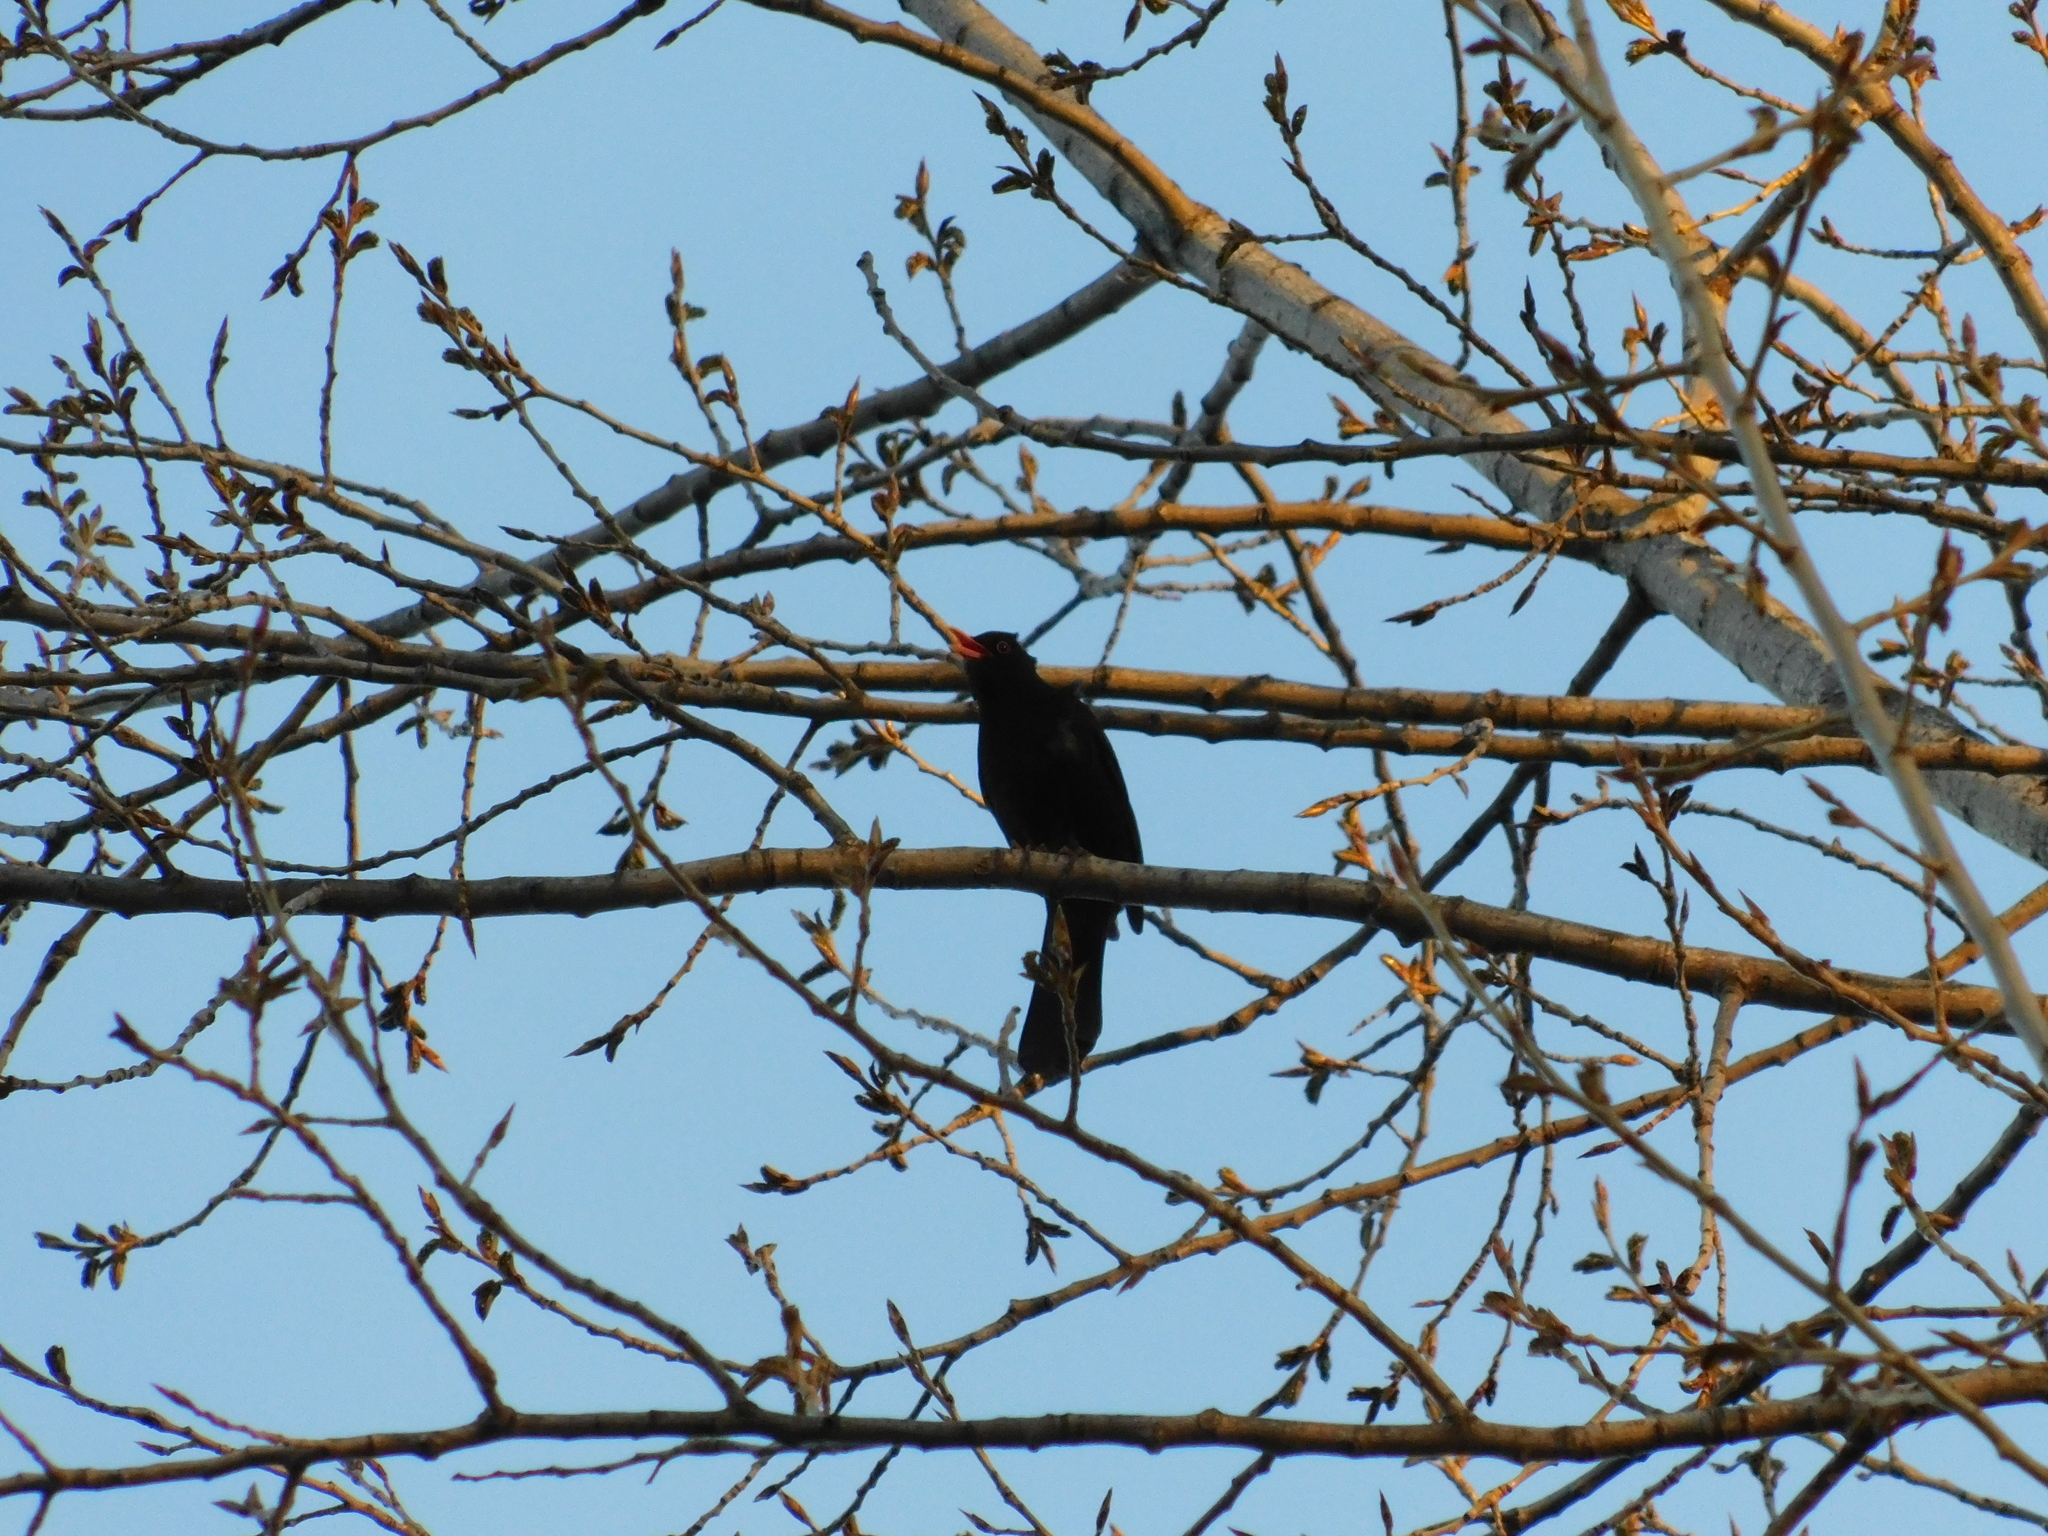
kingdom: Animalia
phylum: Chordata
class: Aves
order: Passeriformes
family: Turdidae
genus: Turdus
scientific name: Turdus merula
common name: Common blackbird
